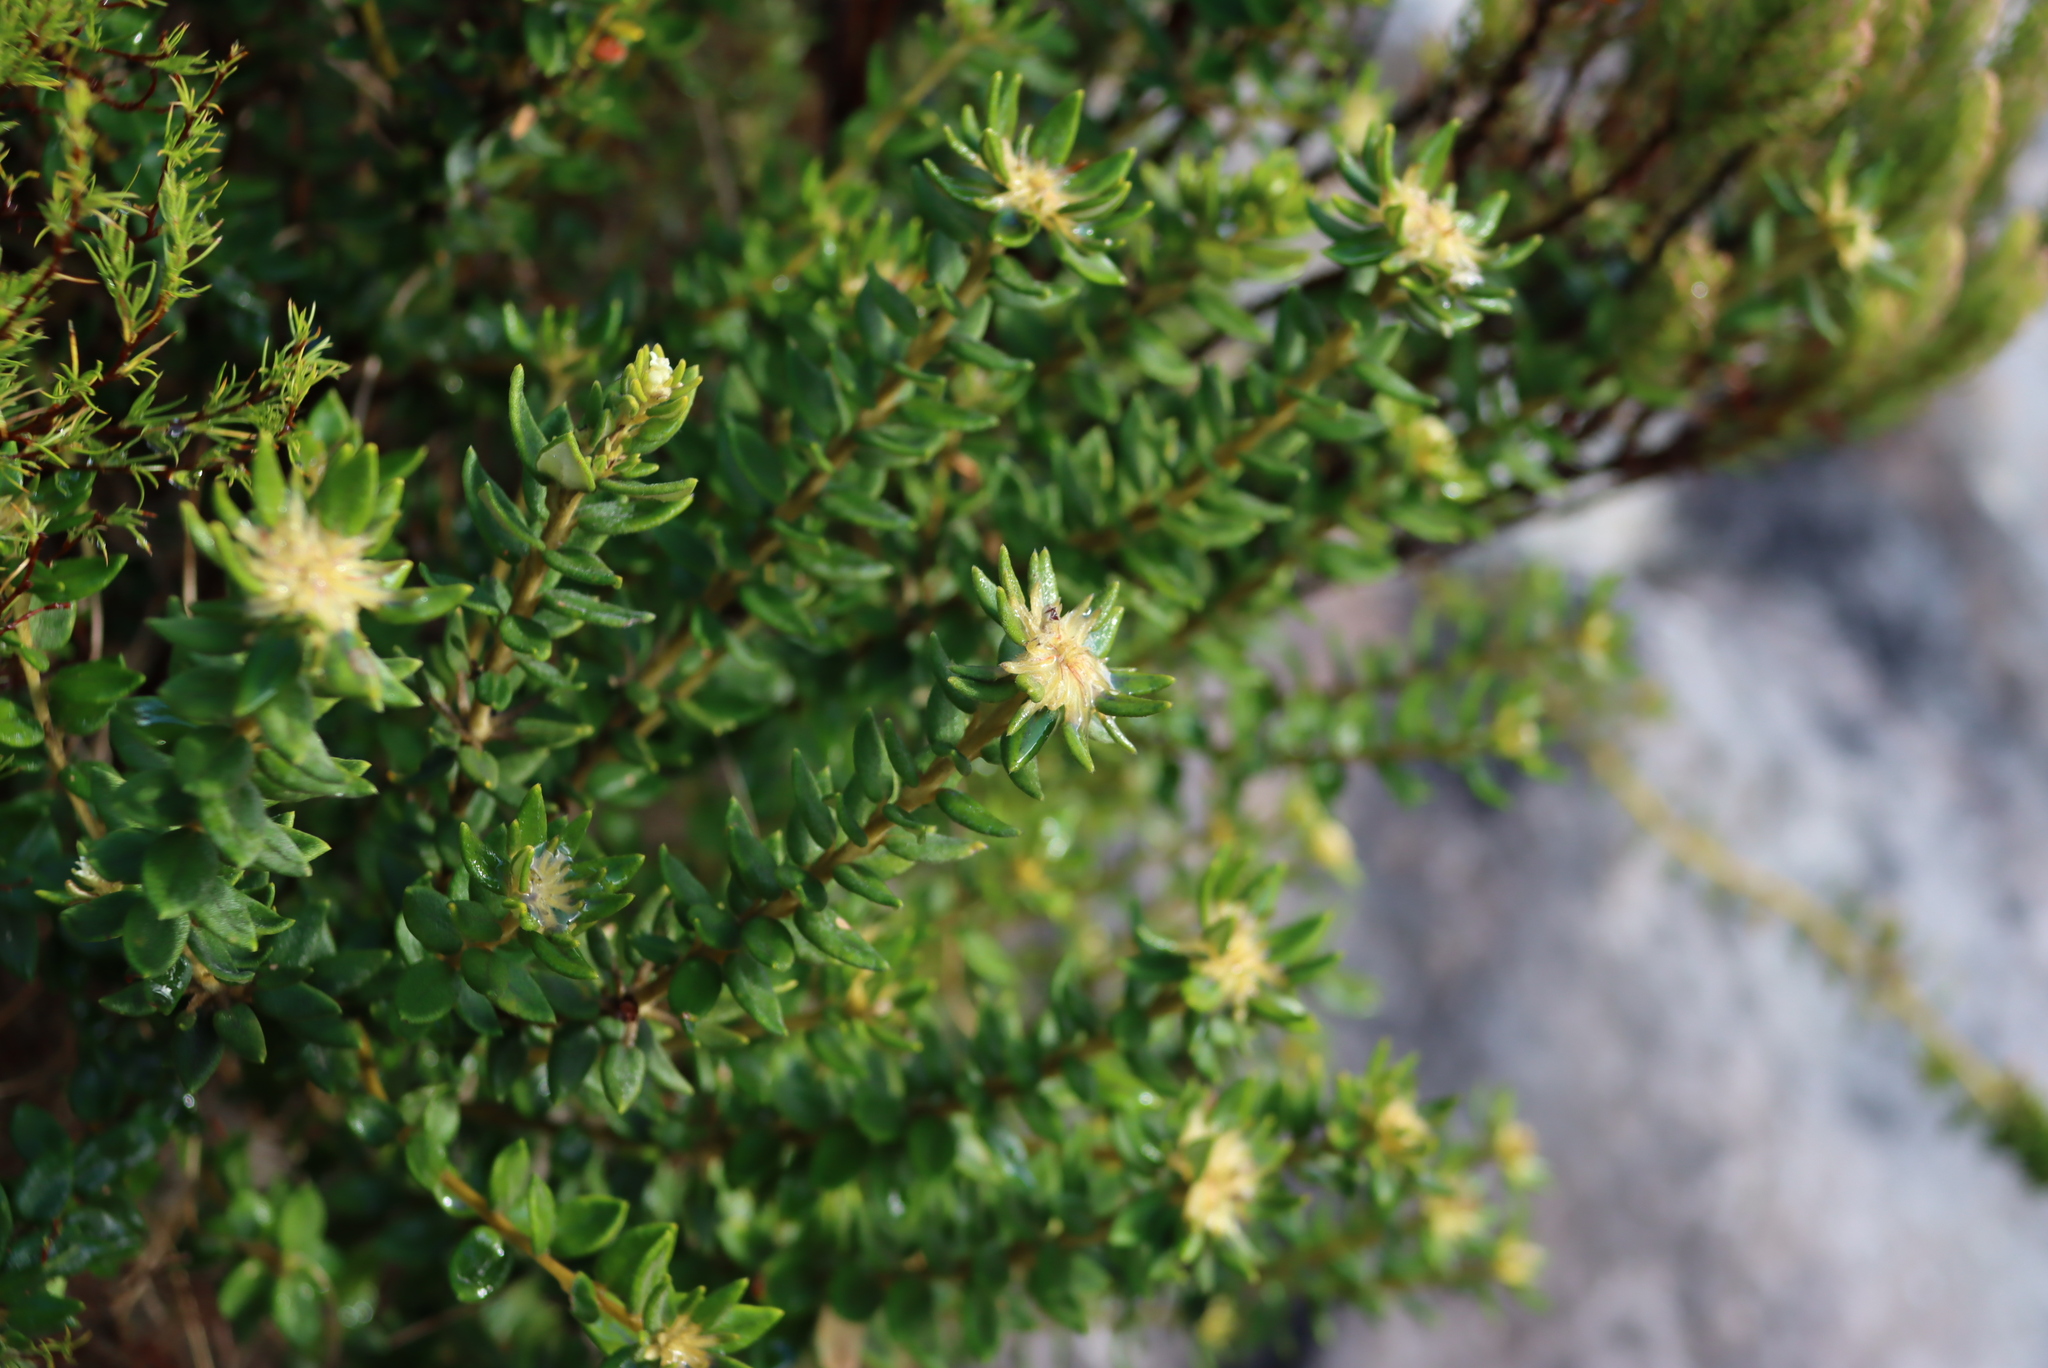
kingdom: Plantae
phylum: Tracheophyta
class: Magnoliopsida
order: Rosales
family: Rhamnaceae
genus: Phylica
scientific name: Phylica dioica
